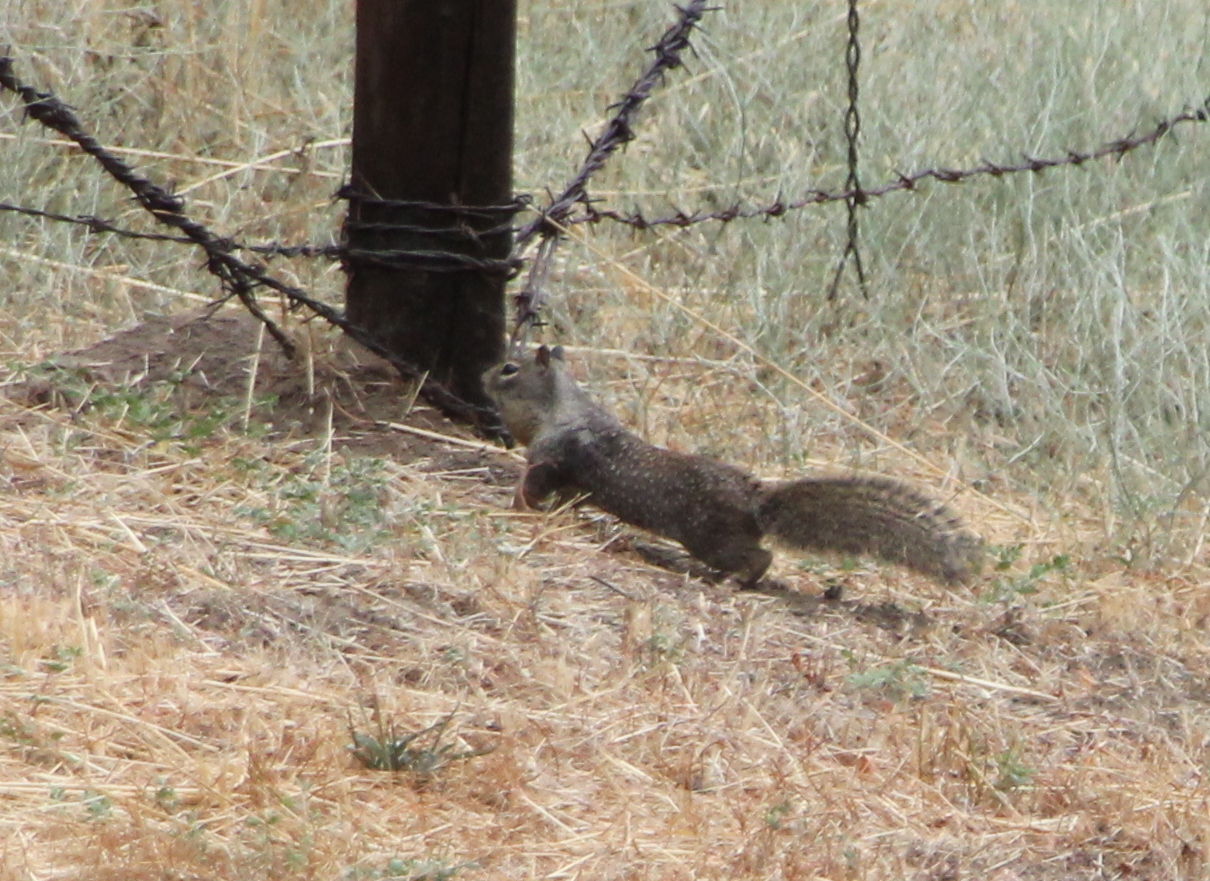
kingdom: Animalia
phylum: Chordata
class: Mammalia
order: Rodentia
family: Sciuridae
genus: Otospermophilus
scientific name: Otospermophilus beecheyi
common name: California ground squirrel
